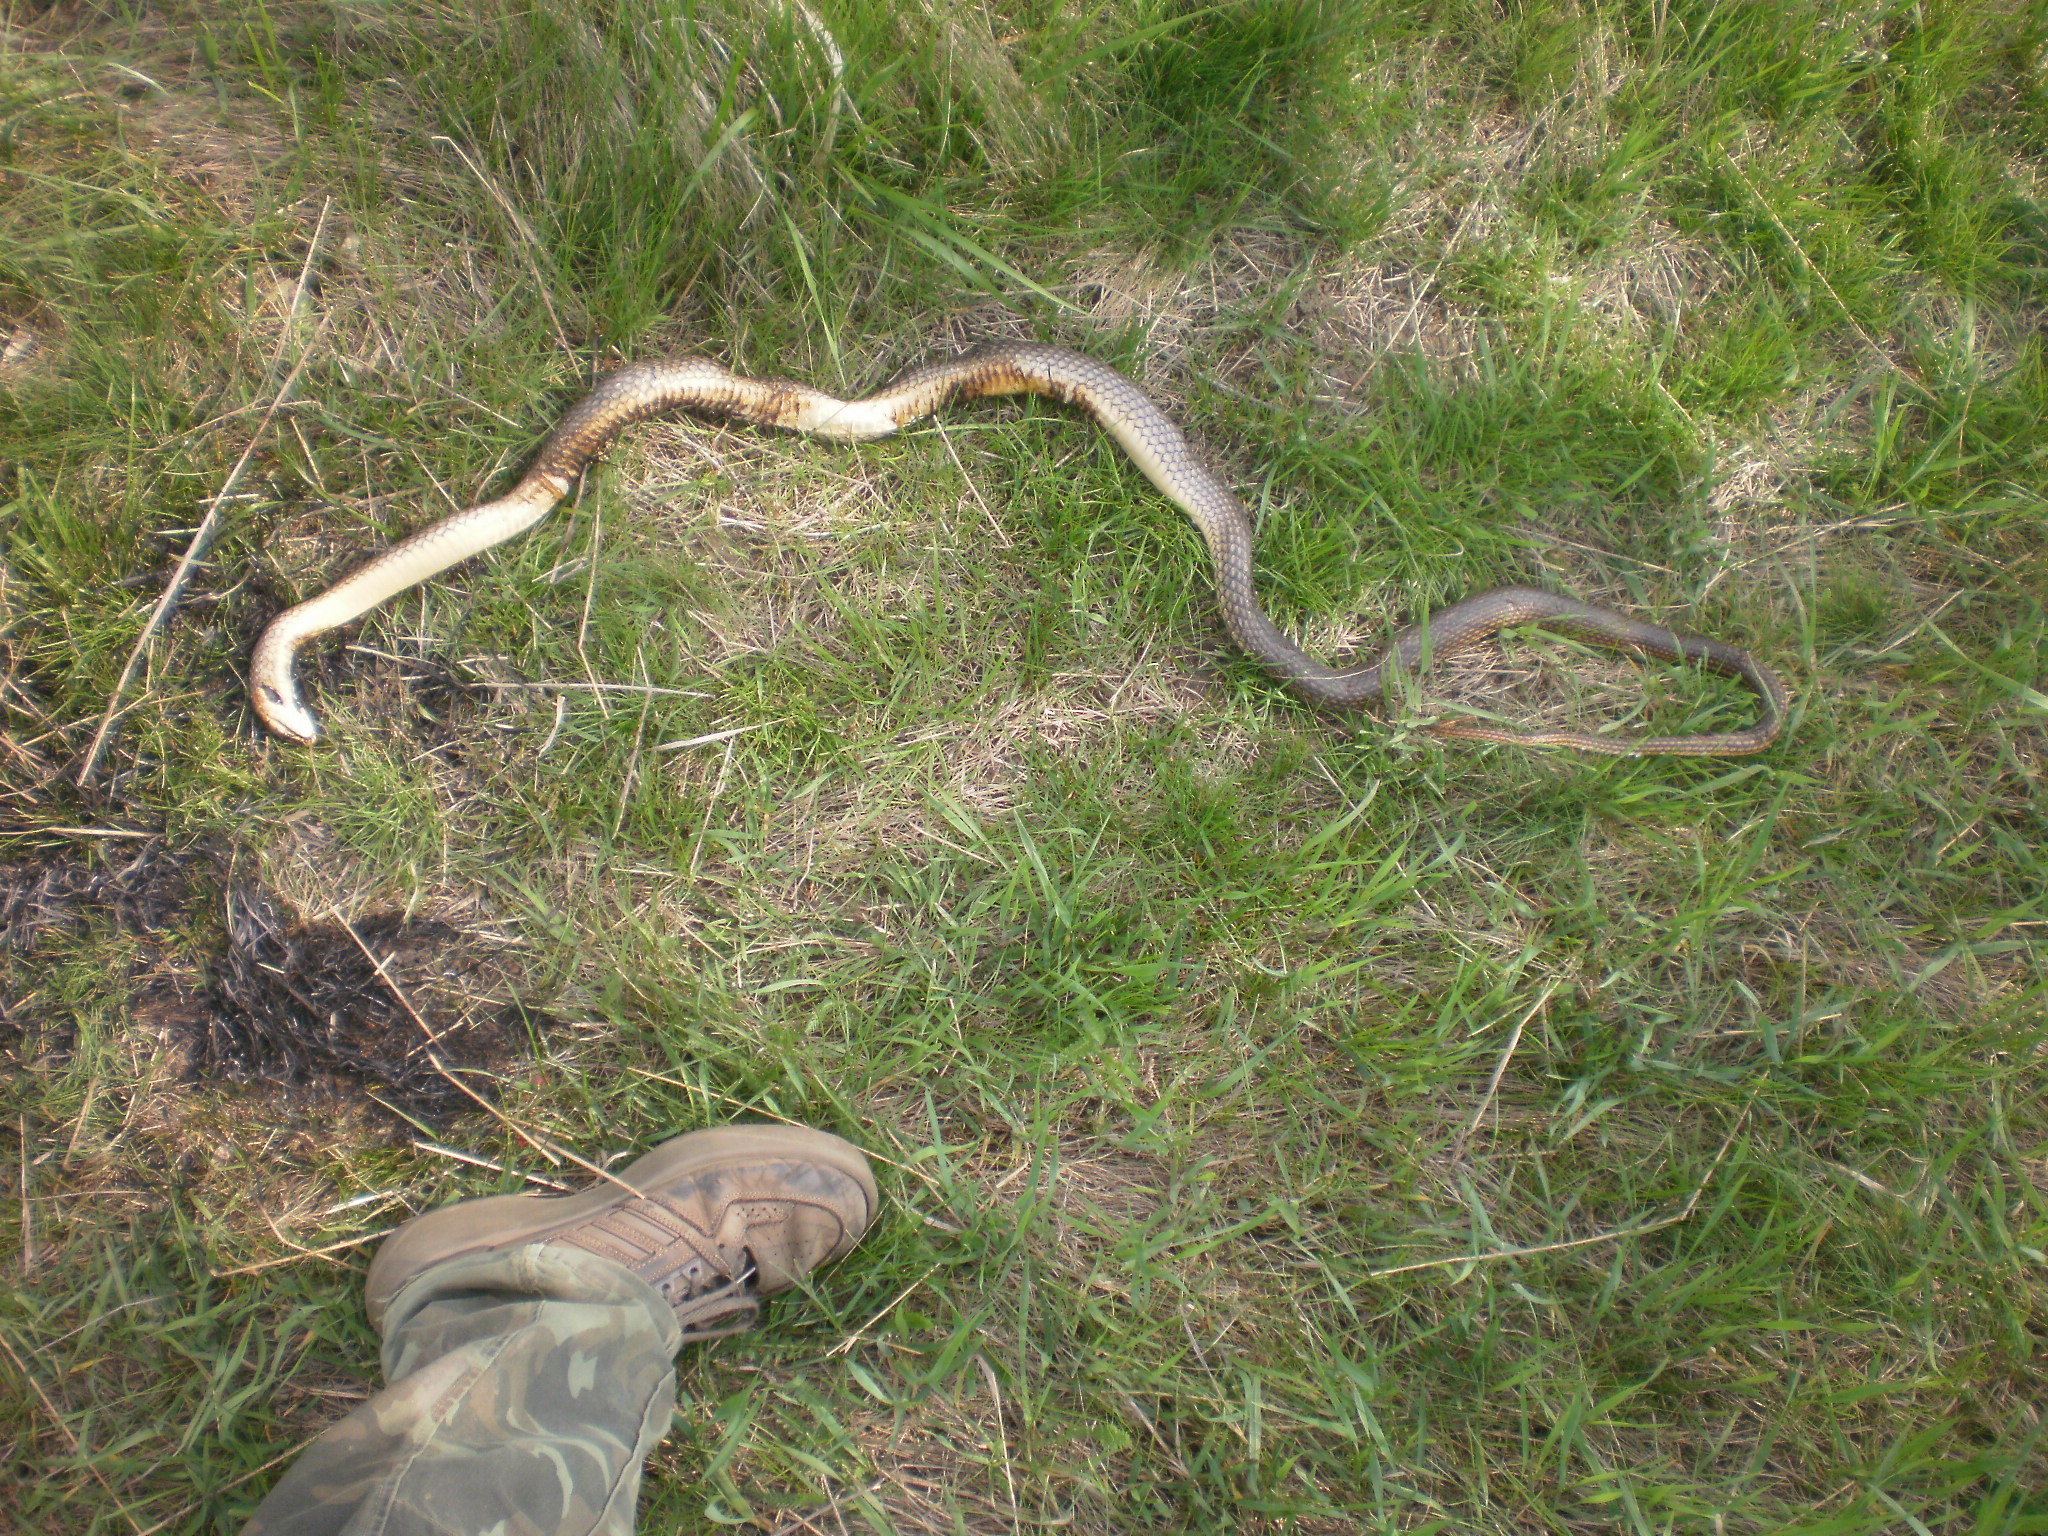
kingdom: Animalia
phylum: Chordata
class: Squamata
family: Colubridae
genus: Dolichophis
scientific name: Dolichophis caspius
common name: Large whip snake
